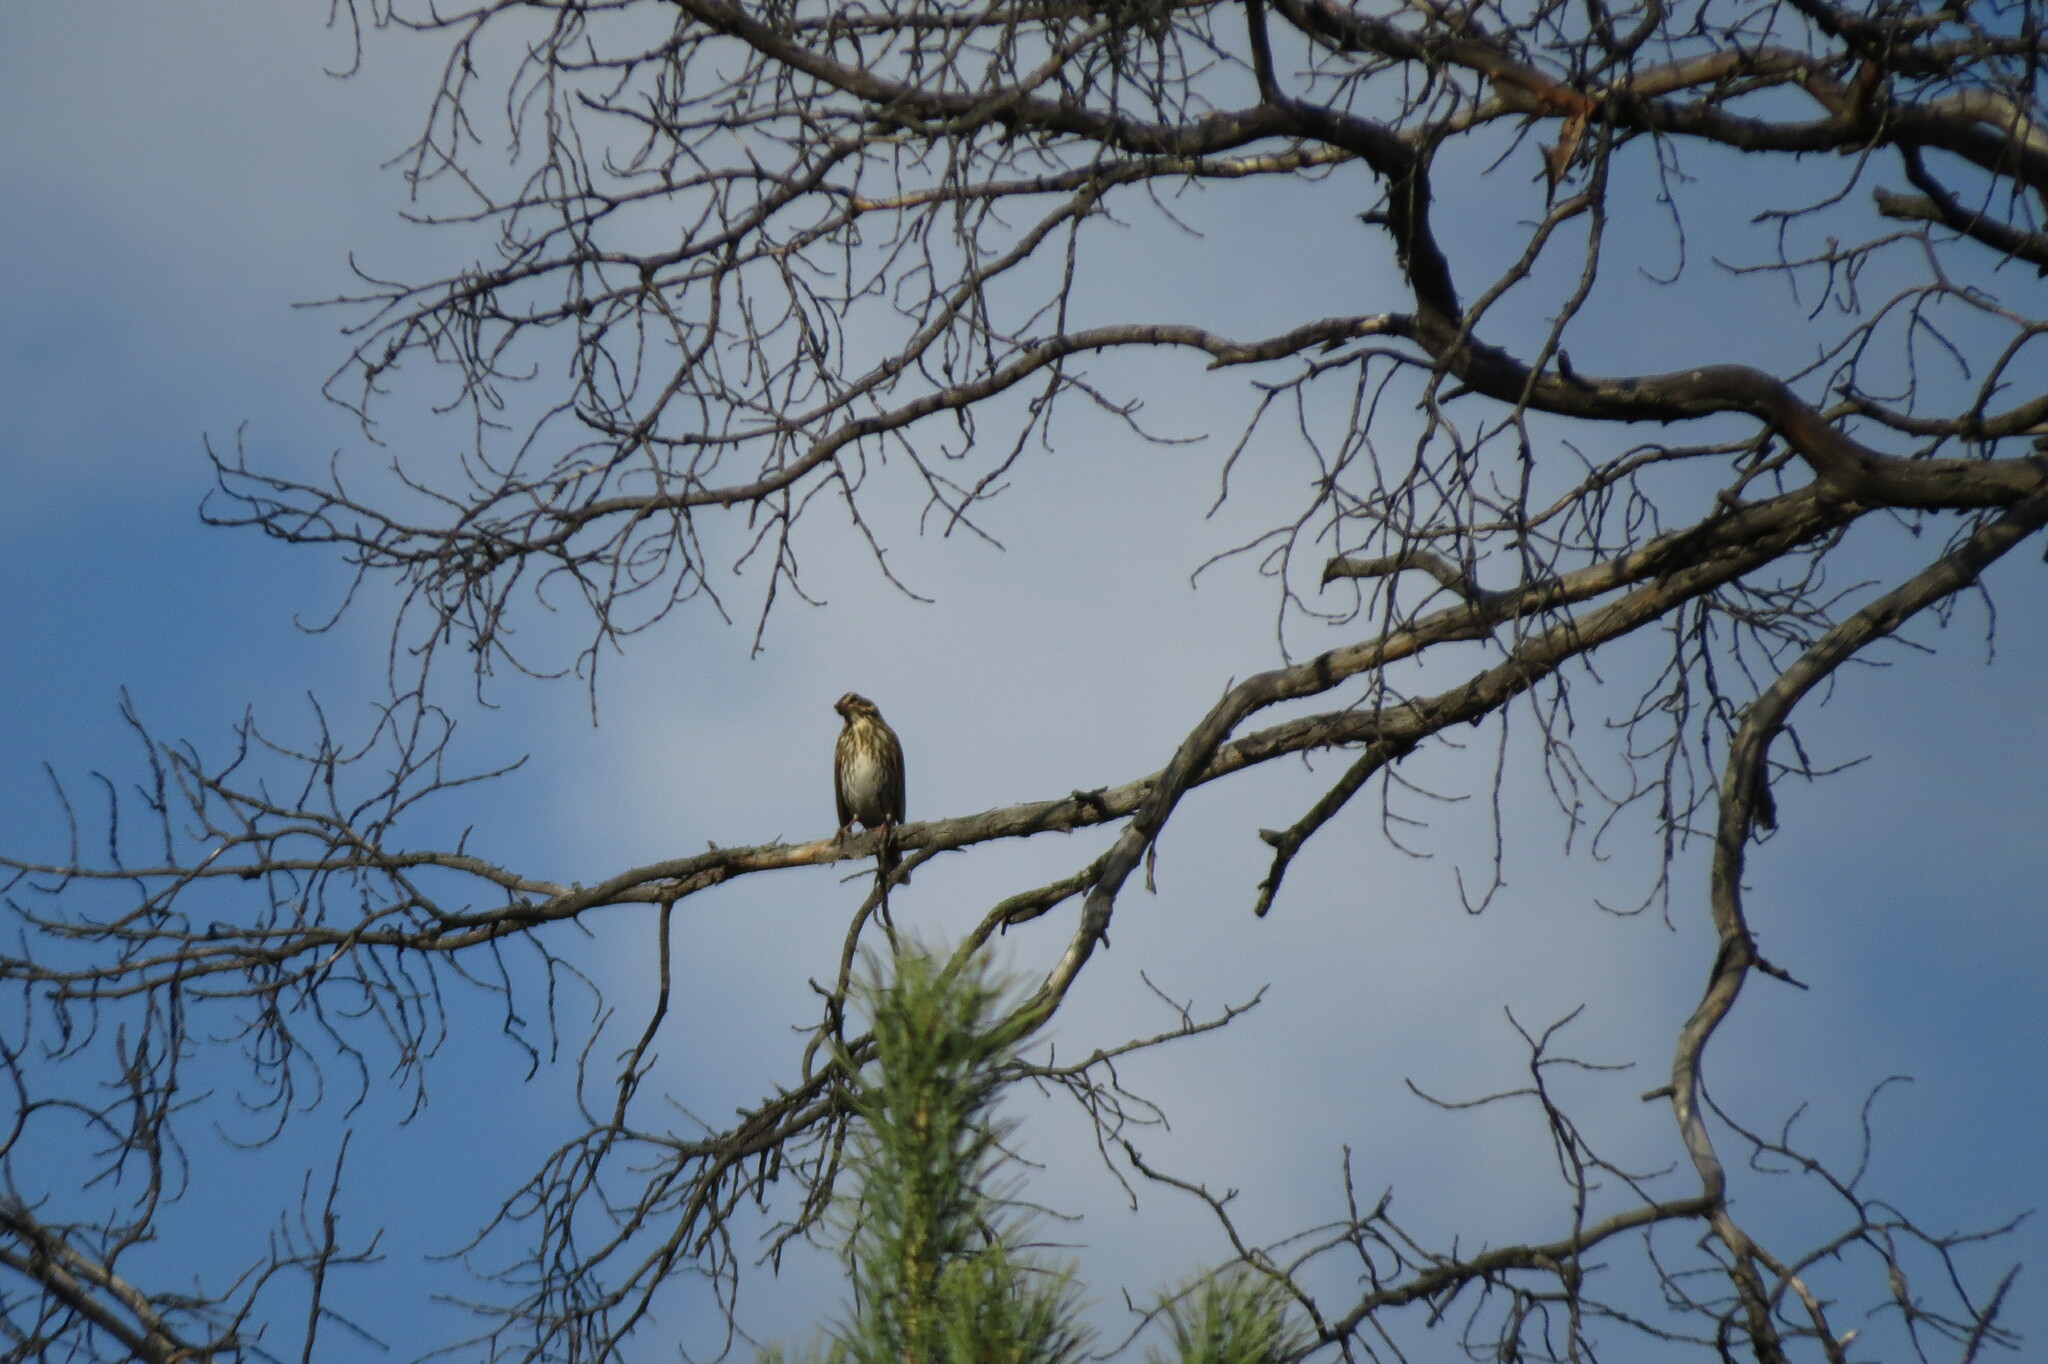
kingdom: Animalia
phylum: Chordata
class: Aves
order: Passeriformes
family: Turdidae
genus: Turdus
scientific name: Turdus iliacus
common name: Redwing
